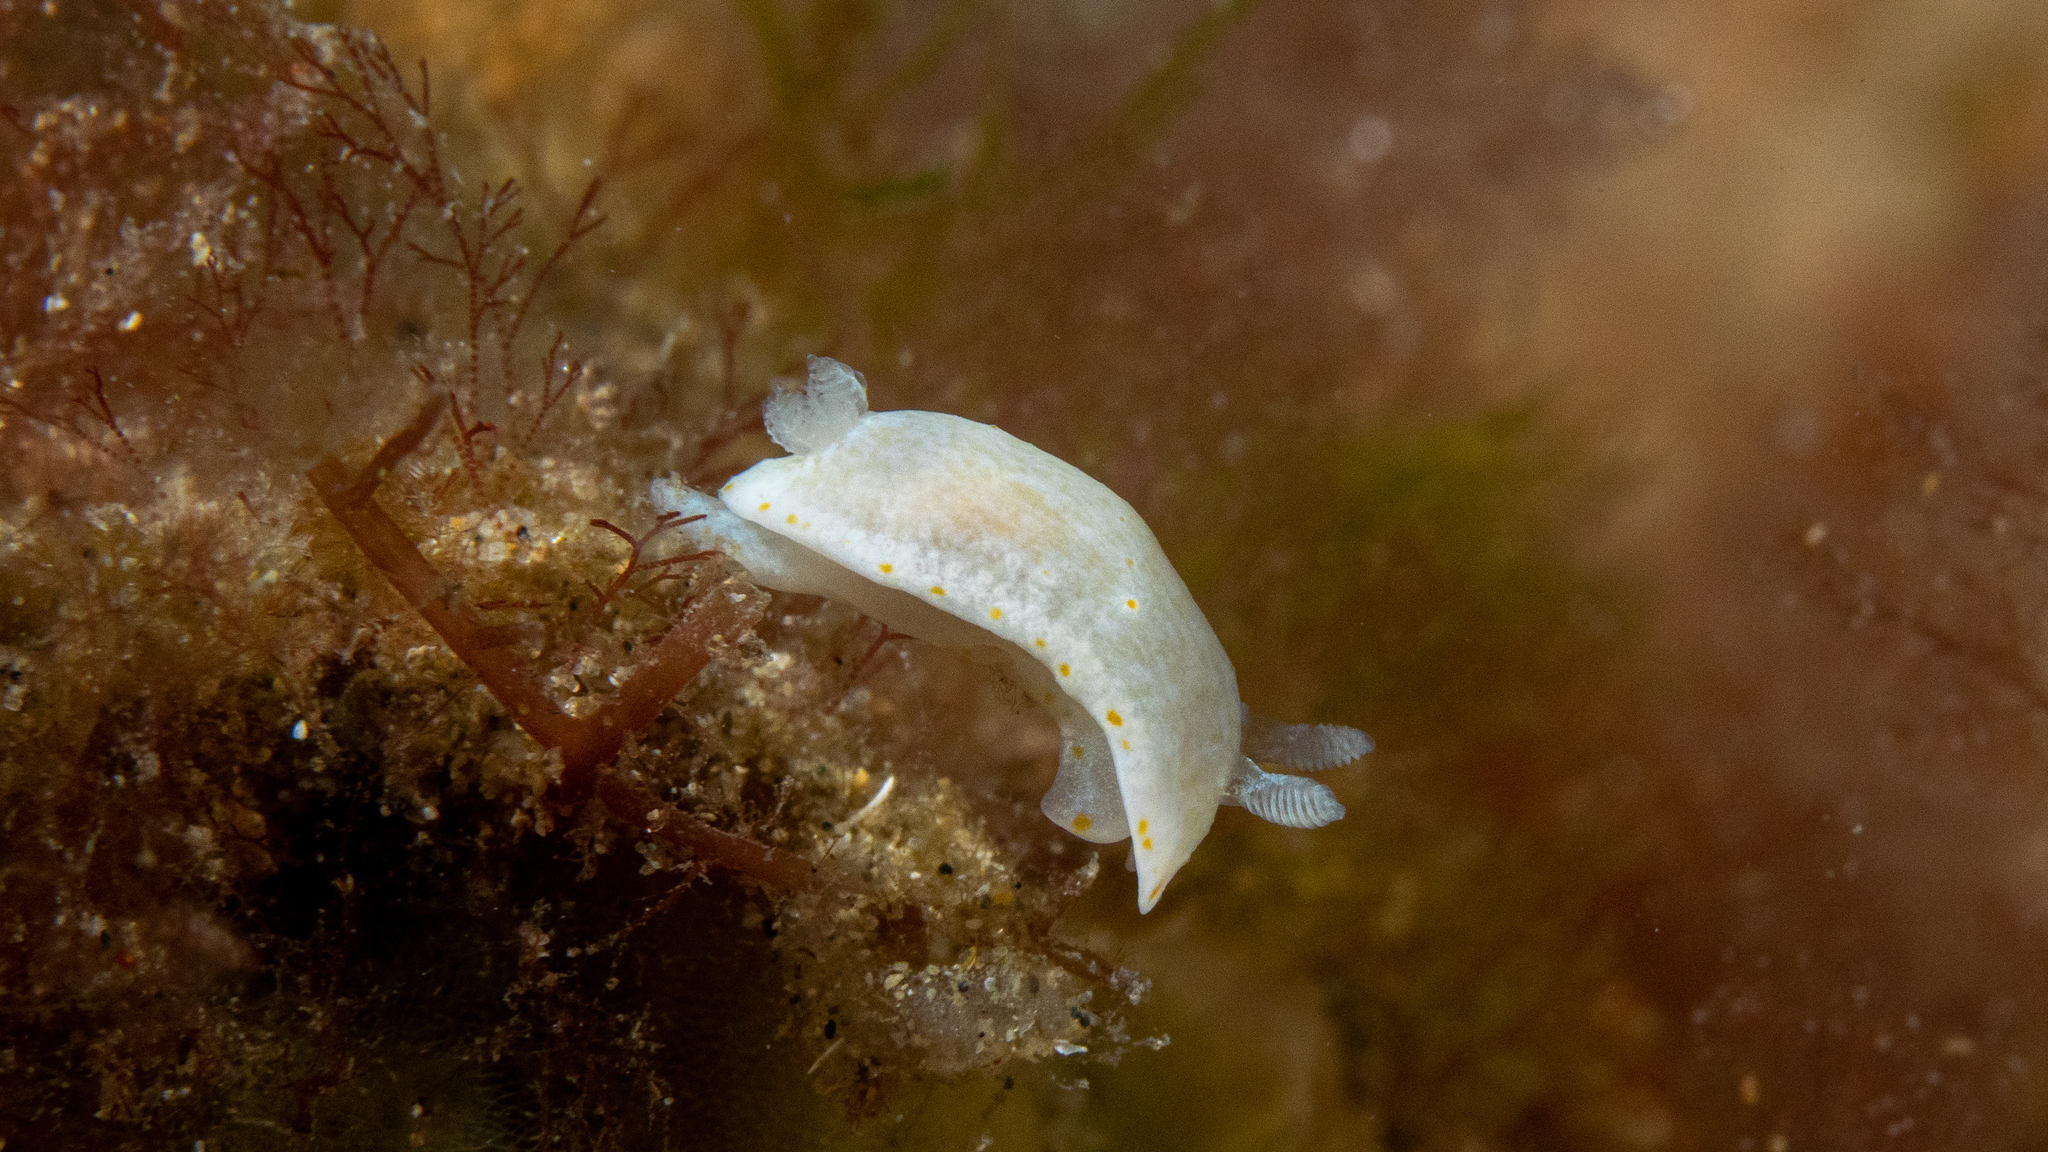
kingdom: Animalia
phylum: Mollusca
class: Gastropoda
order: Nudibranchia
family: Chromodorididae
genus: Goniobranchus
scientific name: Goniobranchus epicurius
